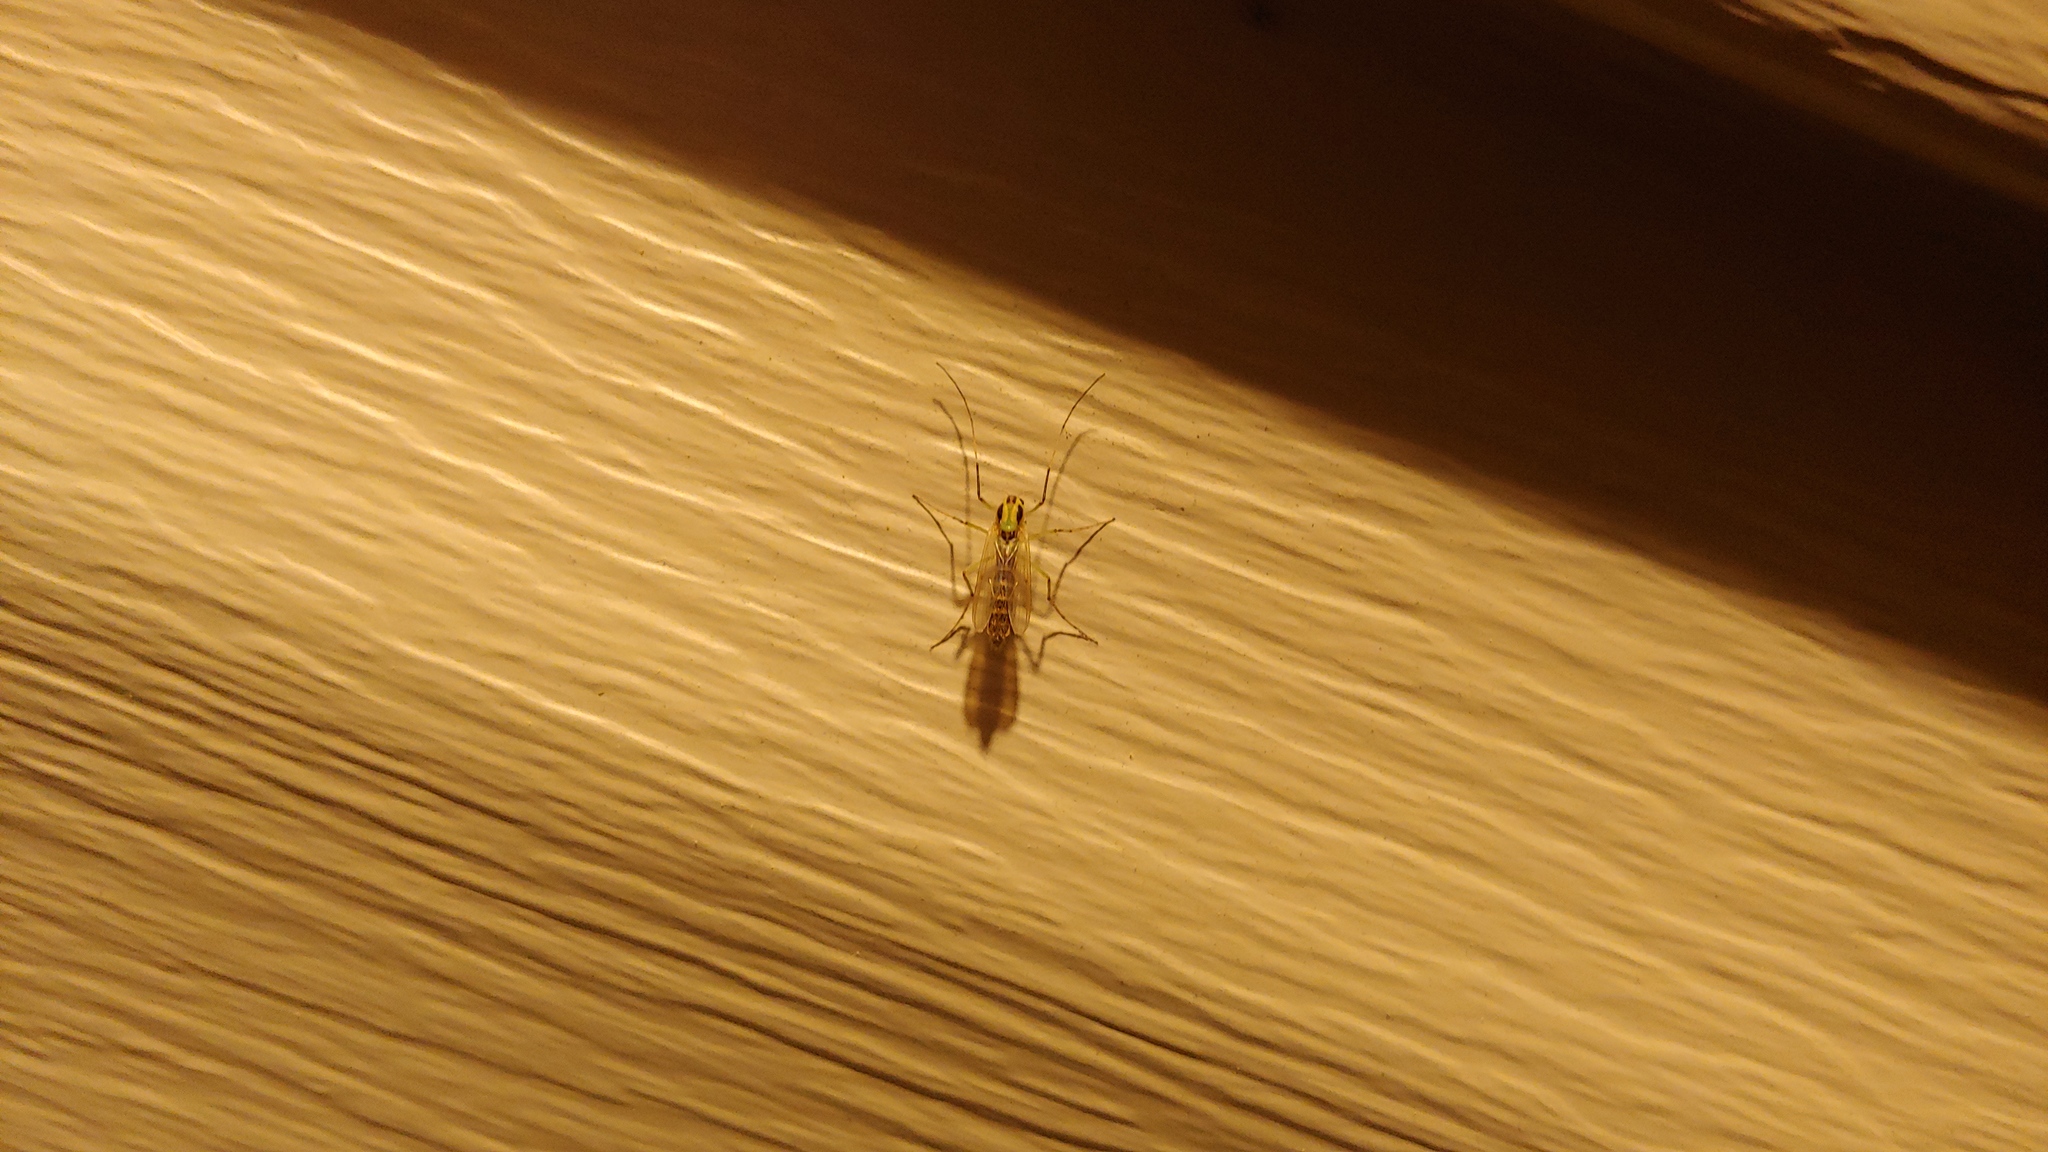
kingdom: Animalia
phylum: Arthropoda
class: Insecta
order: Diptera
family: Chironomidae
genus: Chironomus
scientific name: Chironomus atroviridis
